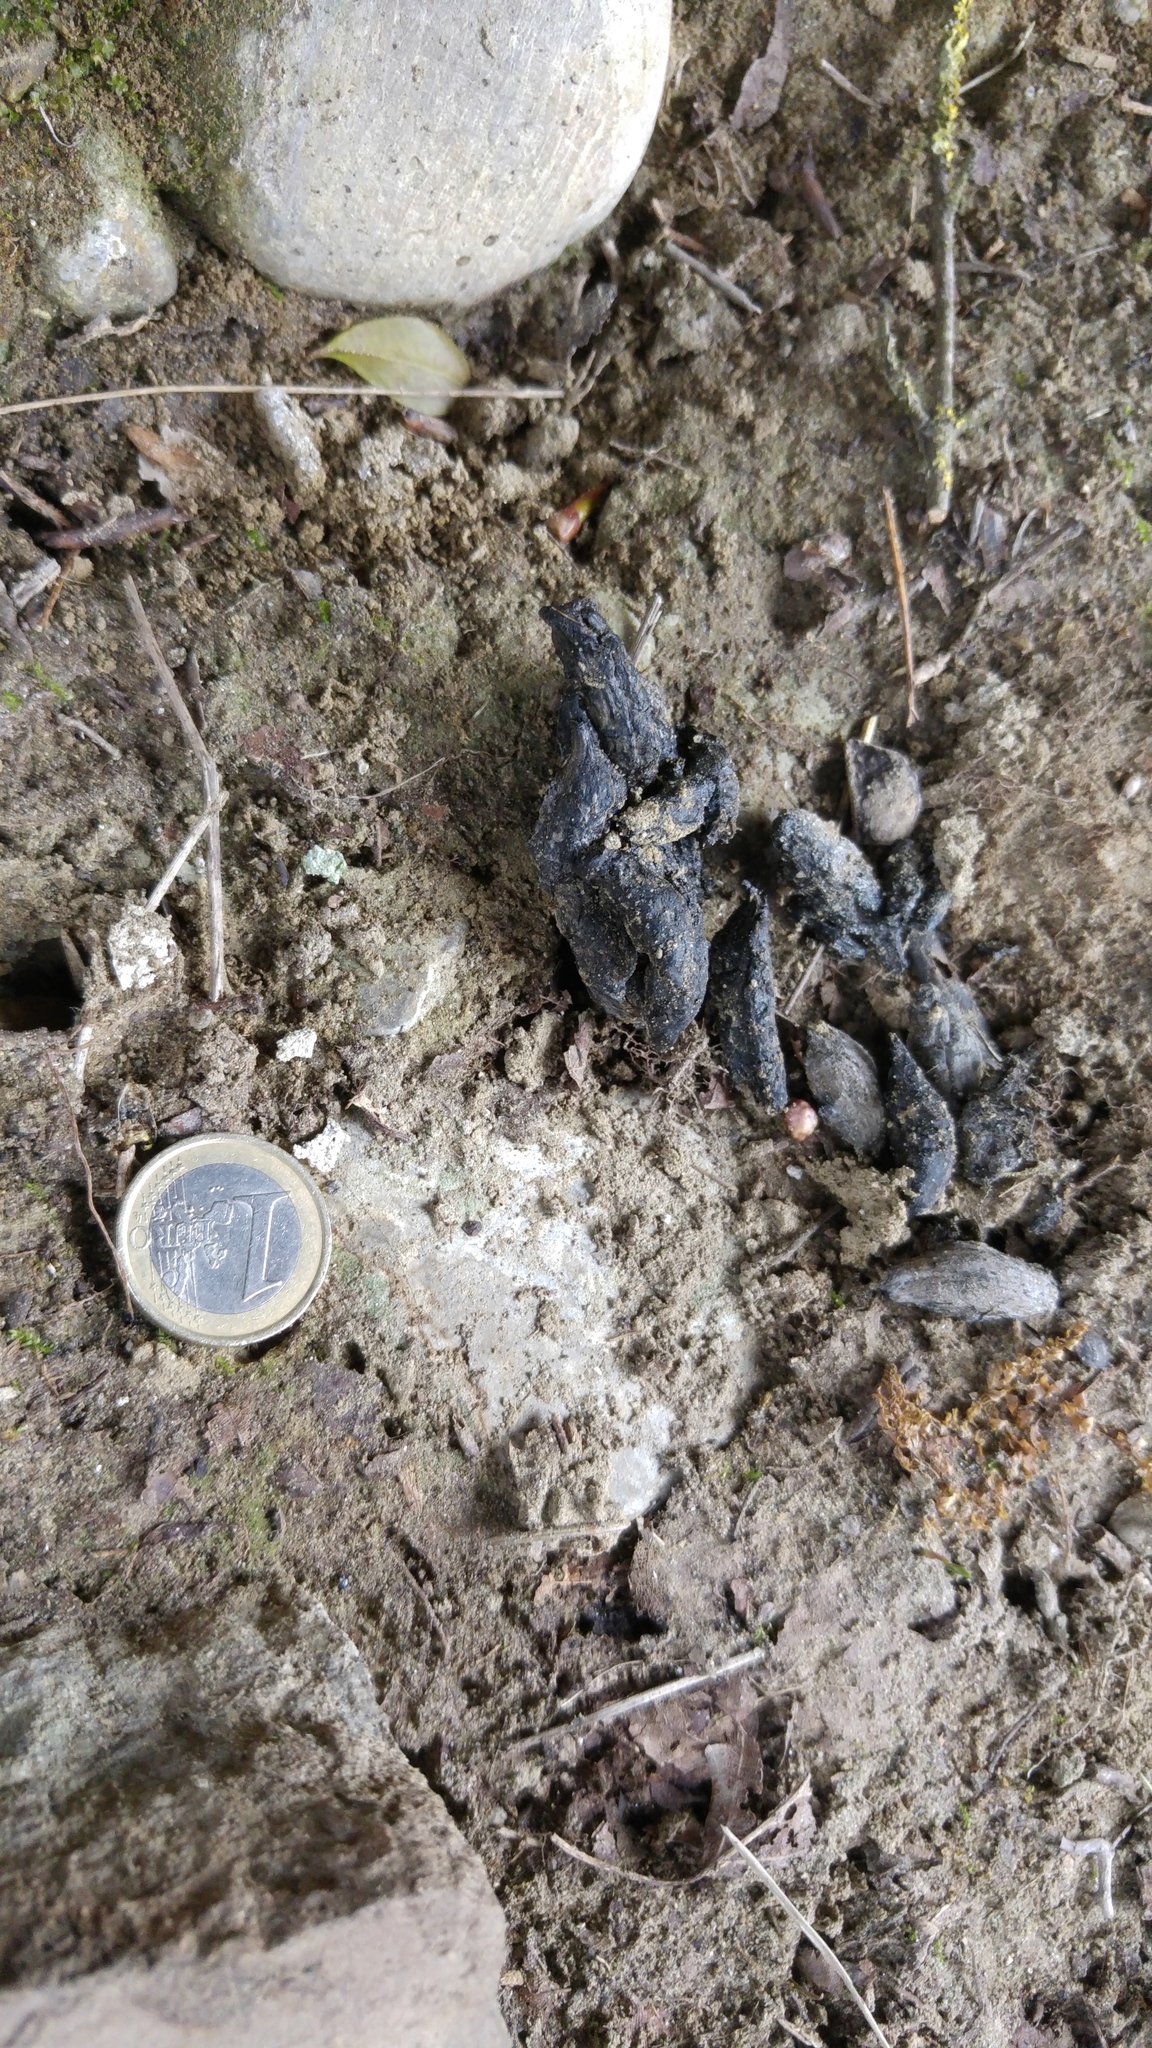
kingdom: Animalia
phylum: Chordata
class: Mammalia
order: Rodentia
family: Hystricidae
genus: Hystrix
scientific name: Hystrix cristata
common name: Crested porcupine
